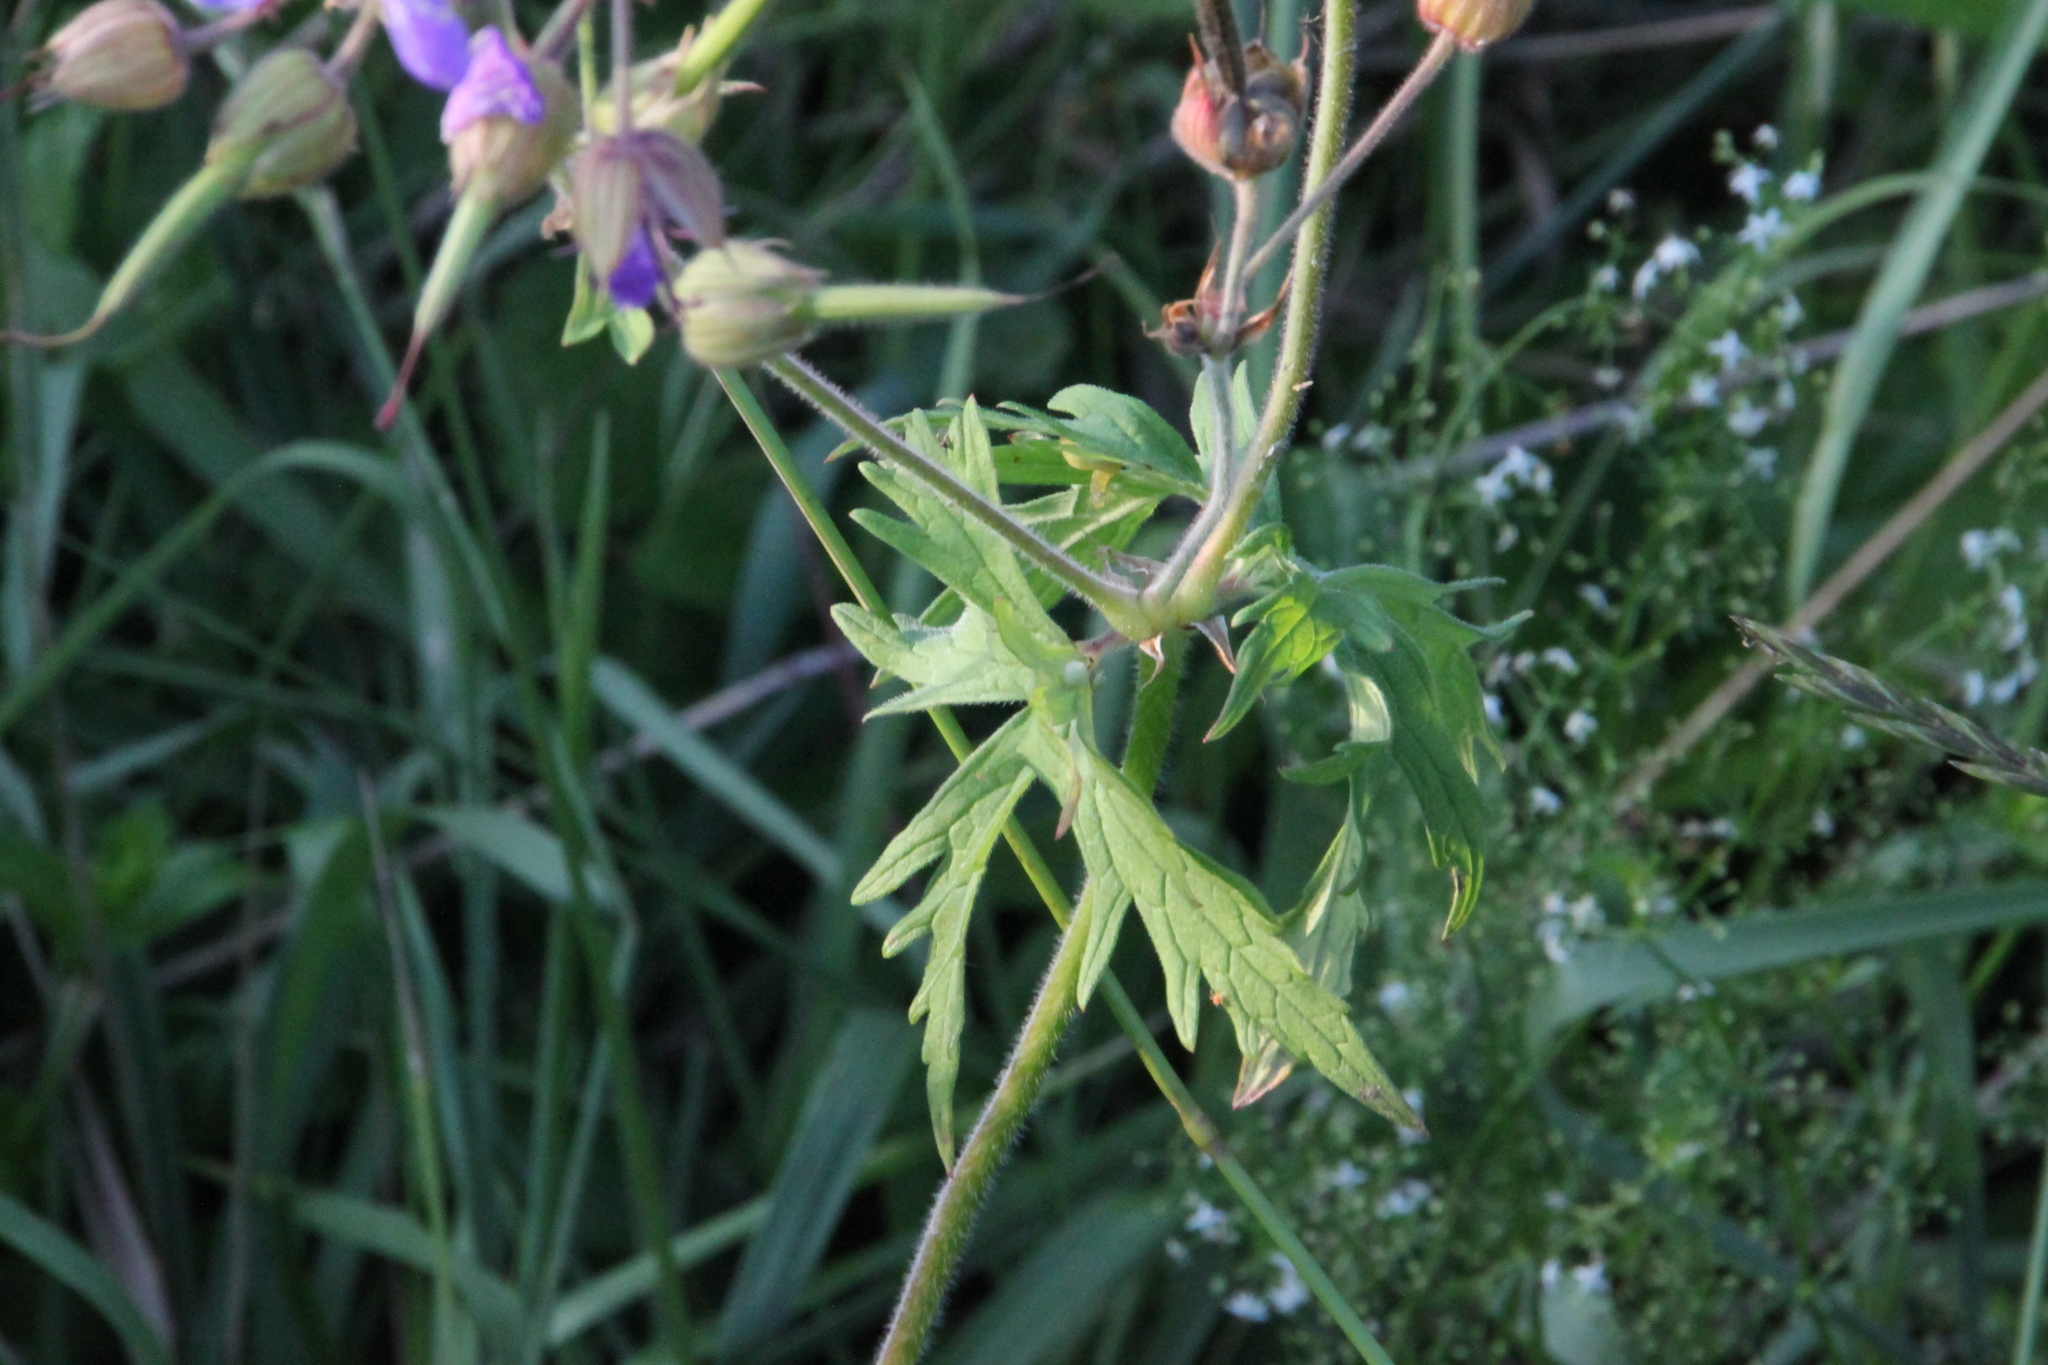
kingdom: Plantae
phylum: Tracheophyta
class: Magnoliopsida
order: Geraniales
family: Geraniaceae
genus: Geranium
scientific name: Geranium pratense
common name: Meadow crane's-bill
